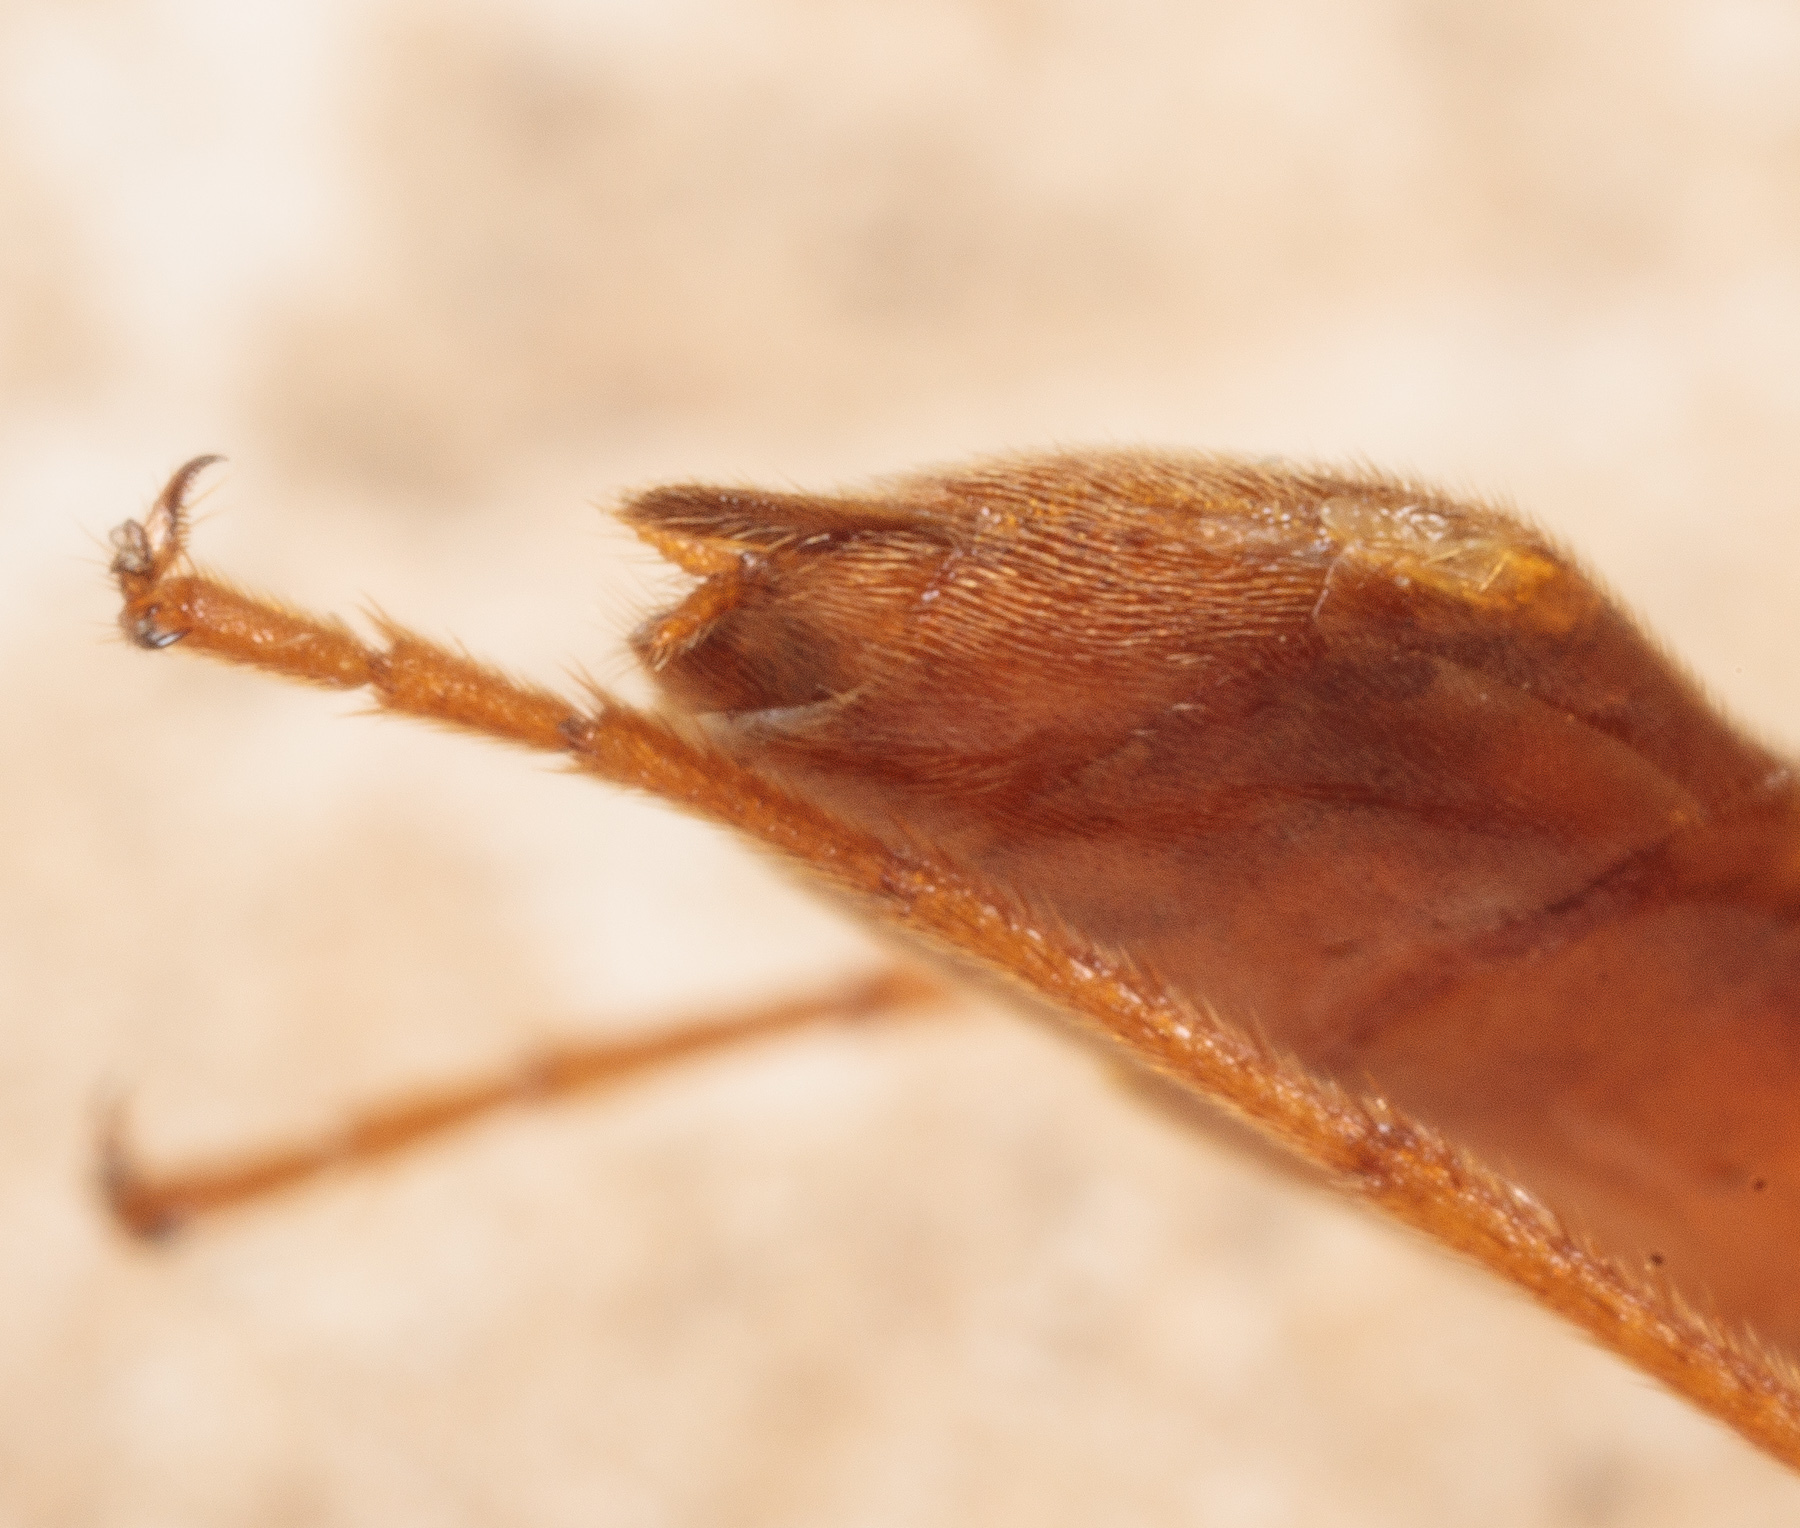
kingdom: Animalia
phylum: Arthropoda
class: Insecta
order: Hymenoptera
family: Ichneumonidae
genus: Enicospilus
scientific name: Enicospilus purgatus
